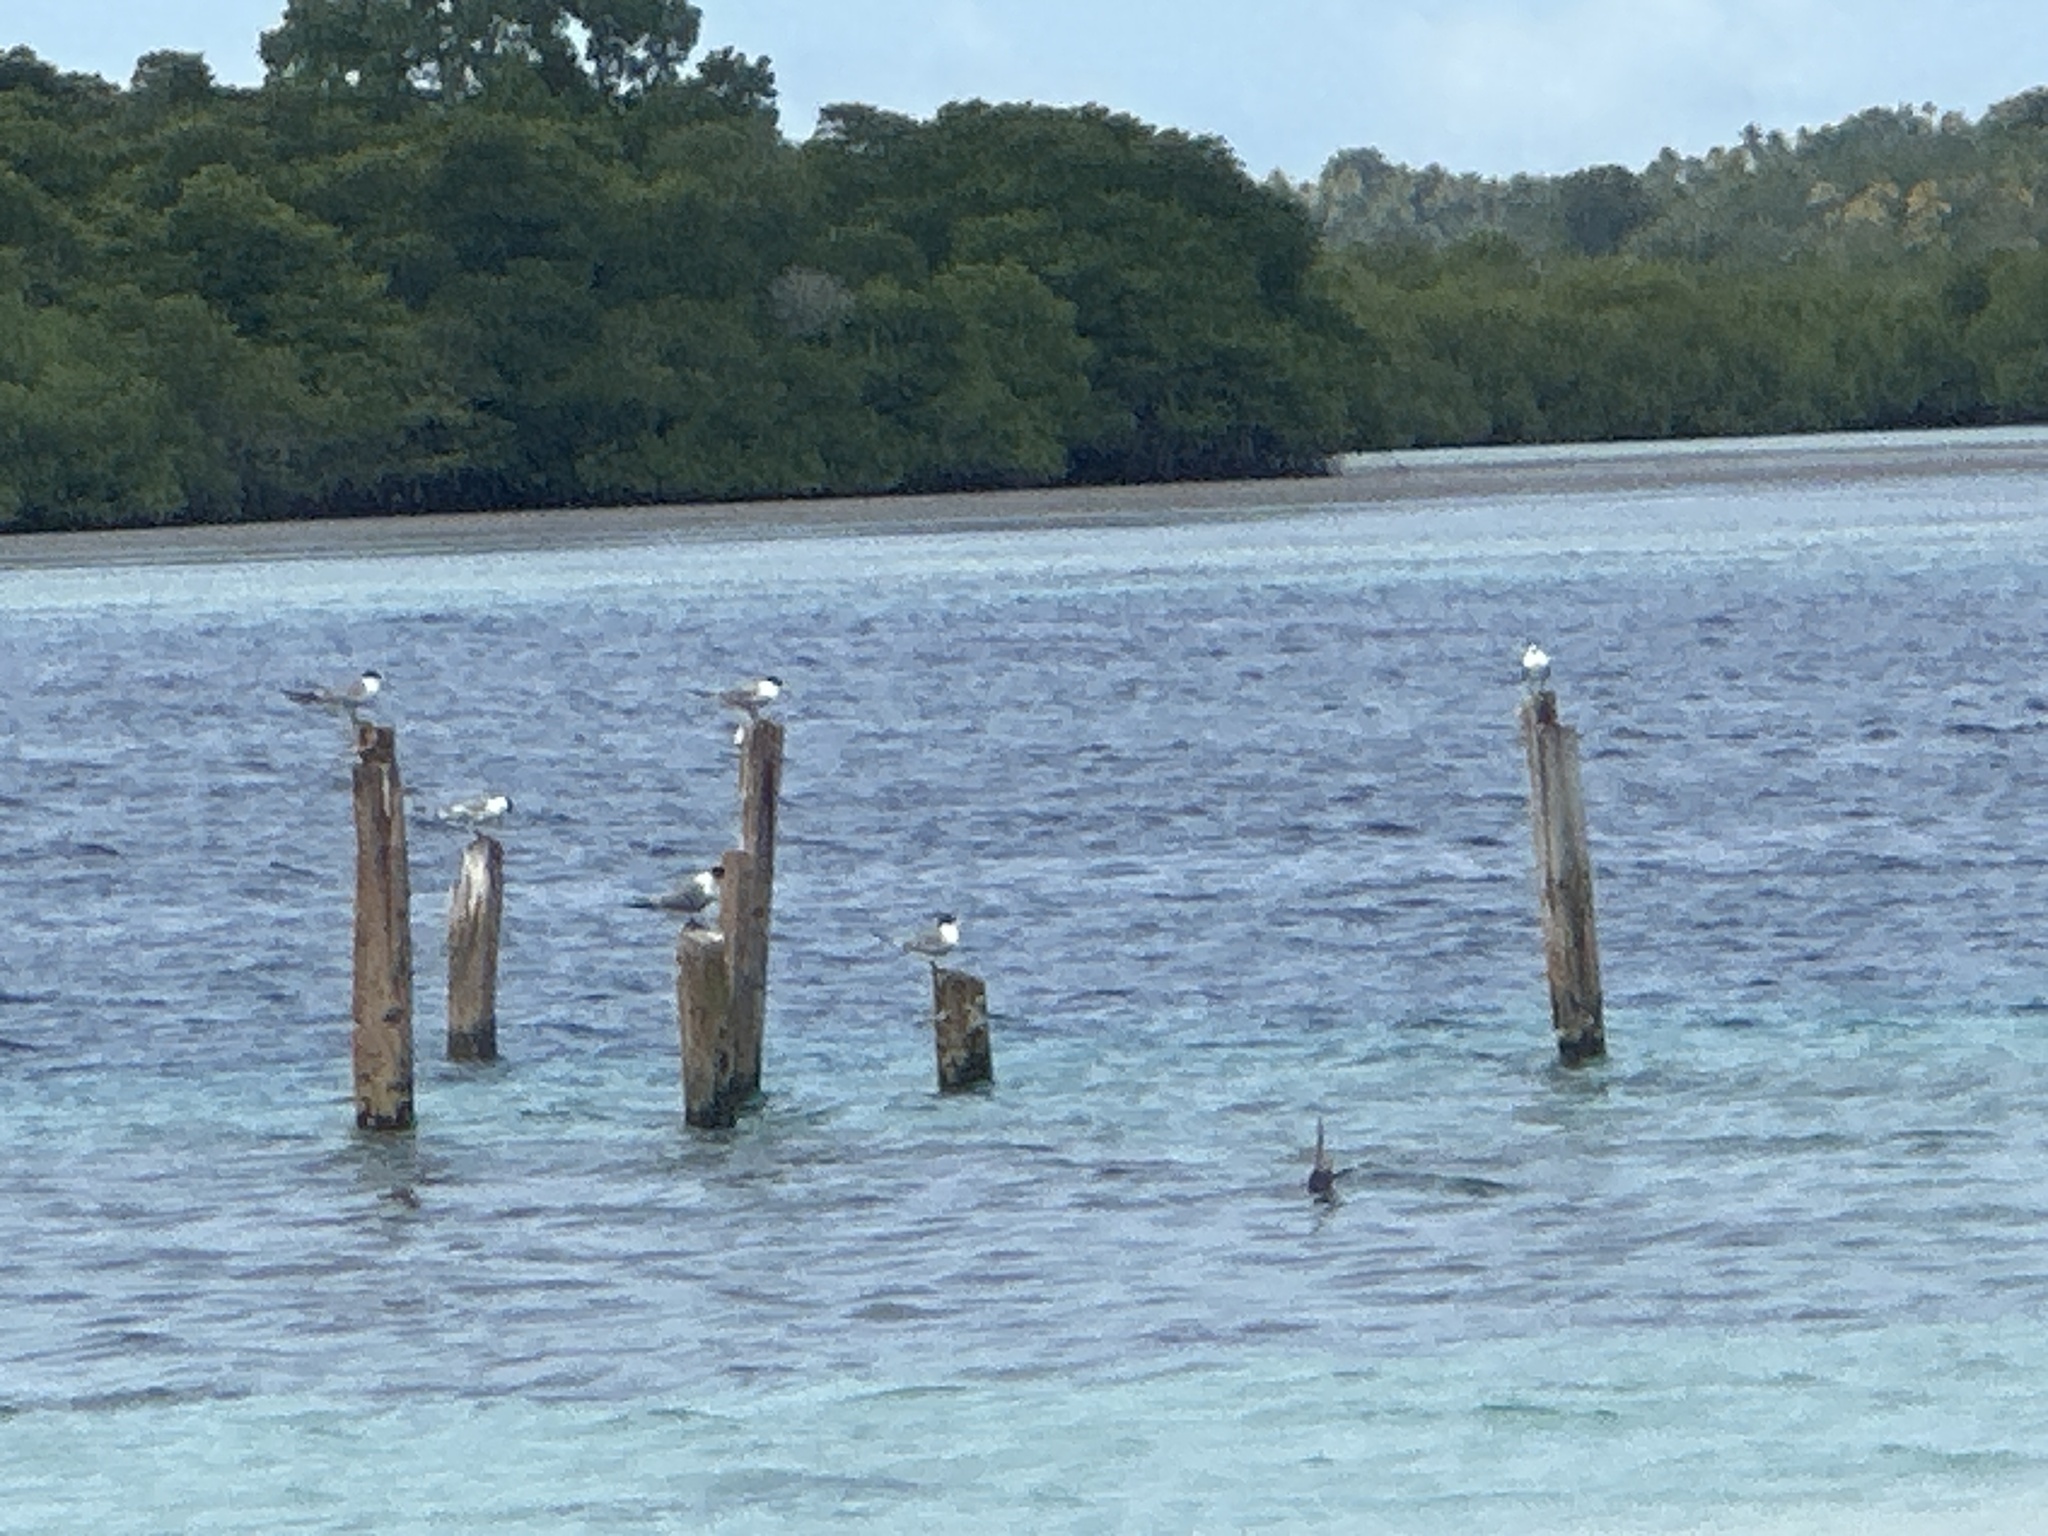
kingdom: Animalia
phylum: Chordata
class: Aves
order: Charadriiformes
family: Laridae
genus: Thalasseus
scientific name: Thalasseus bergii
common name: Greater crested tern
